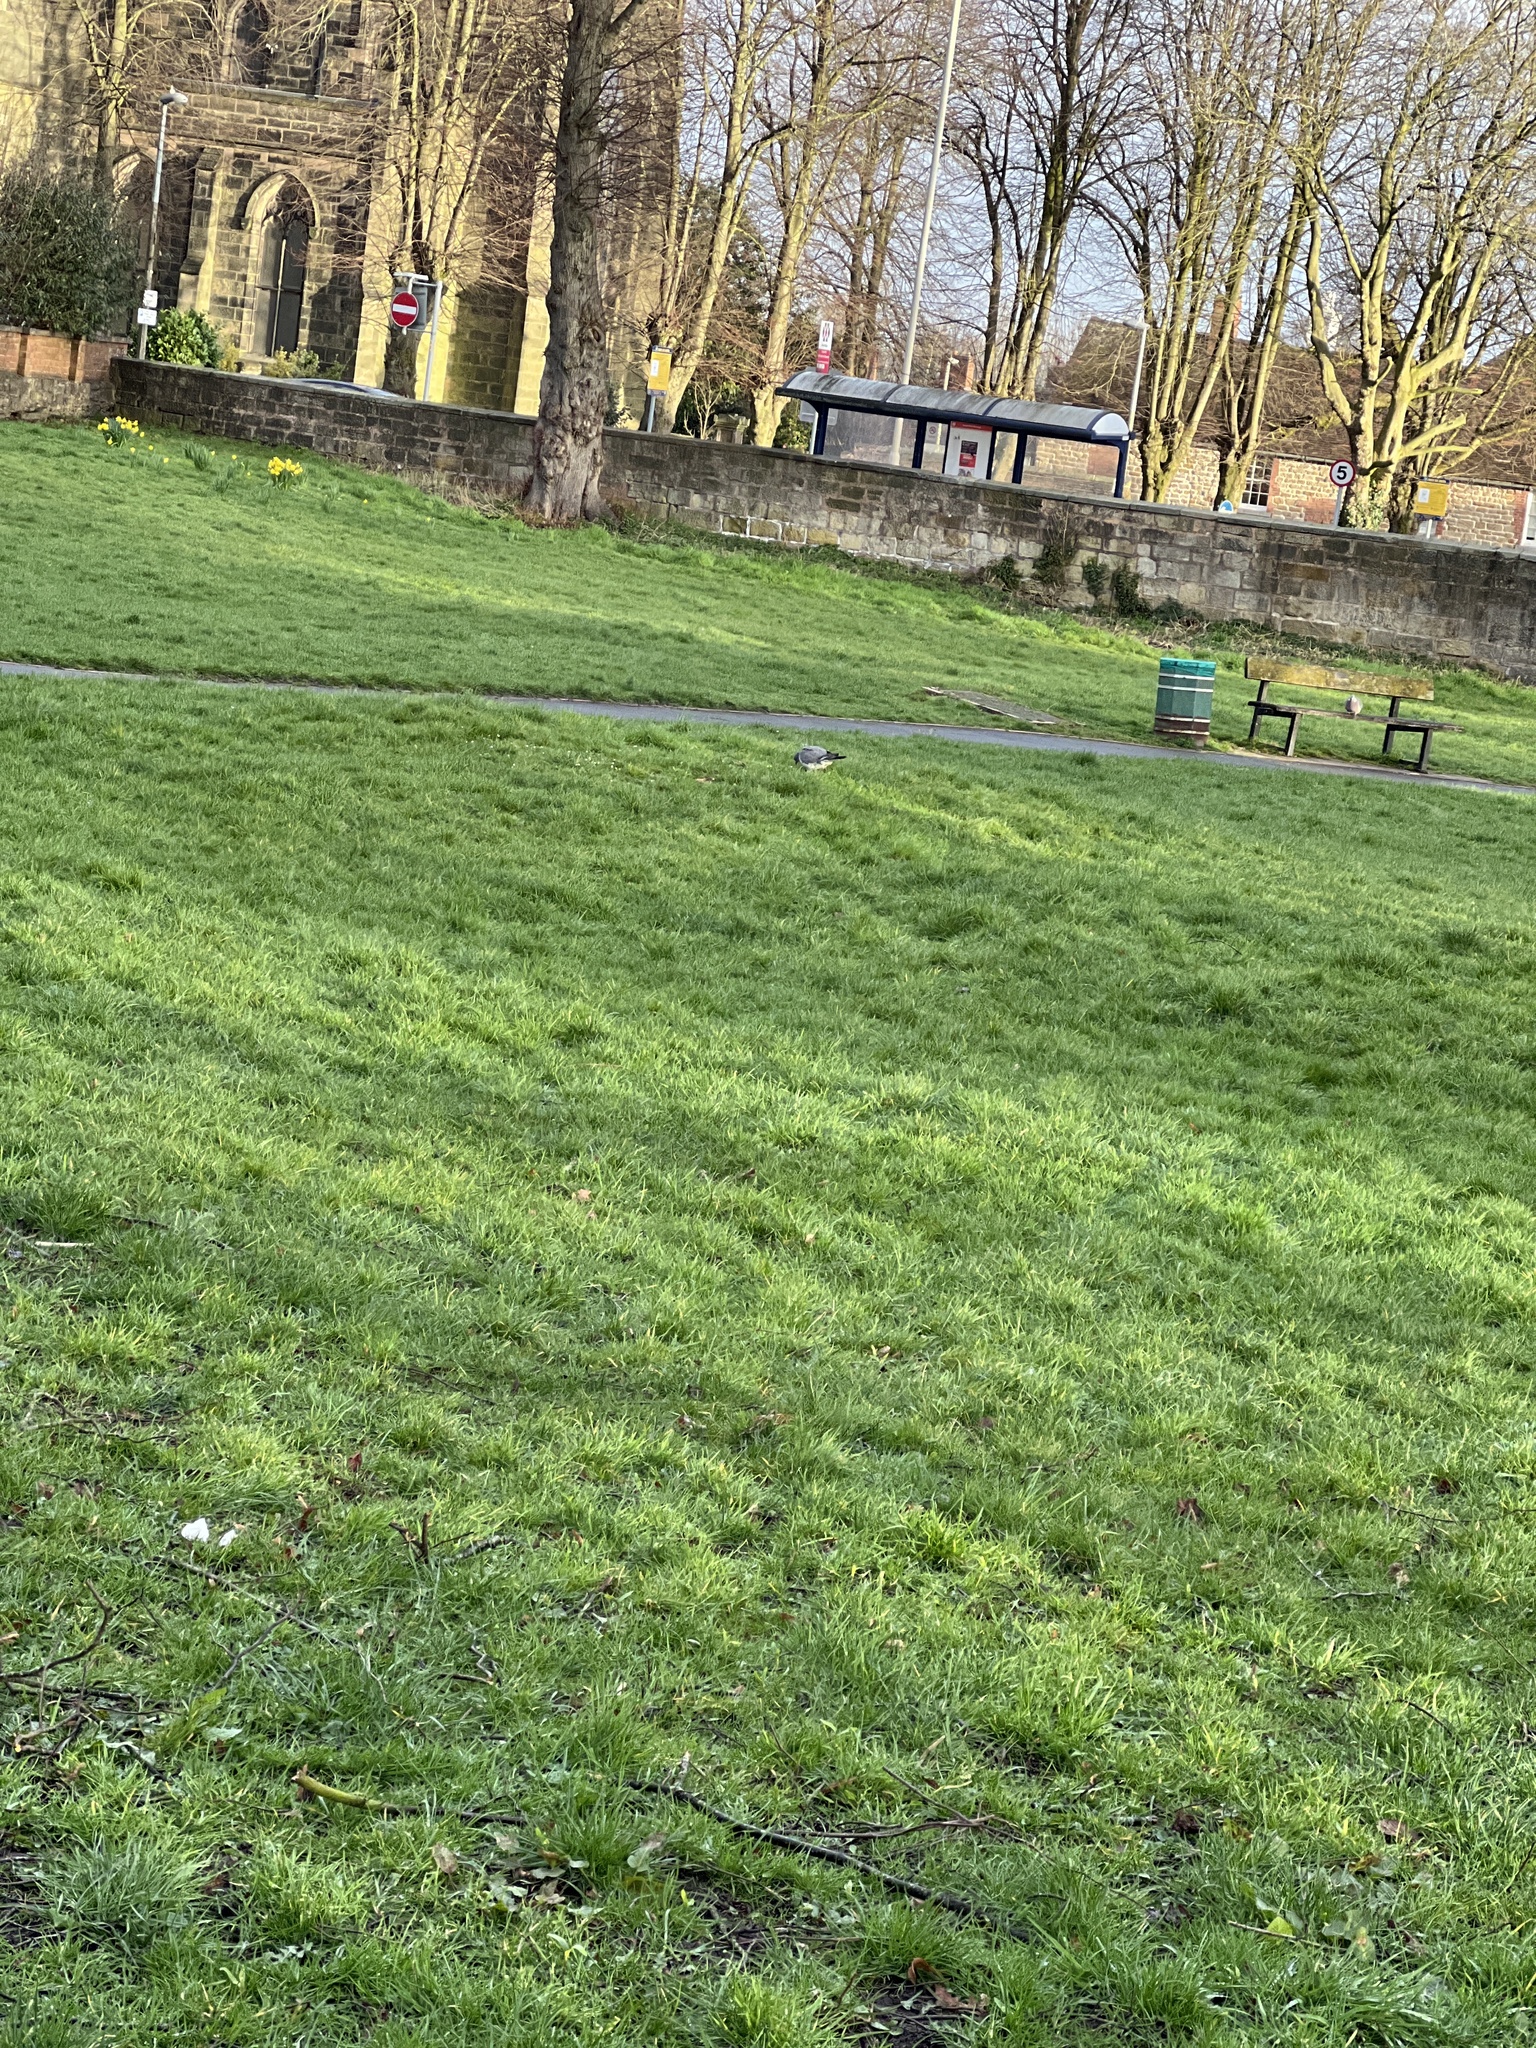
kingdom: Animalia
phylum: Chordata
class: Aves
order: Columbiformes
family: Columbidae
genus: Columba
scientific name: Columba palumbus
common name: Common wood pigeon
